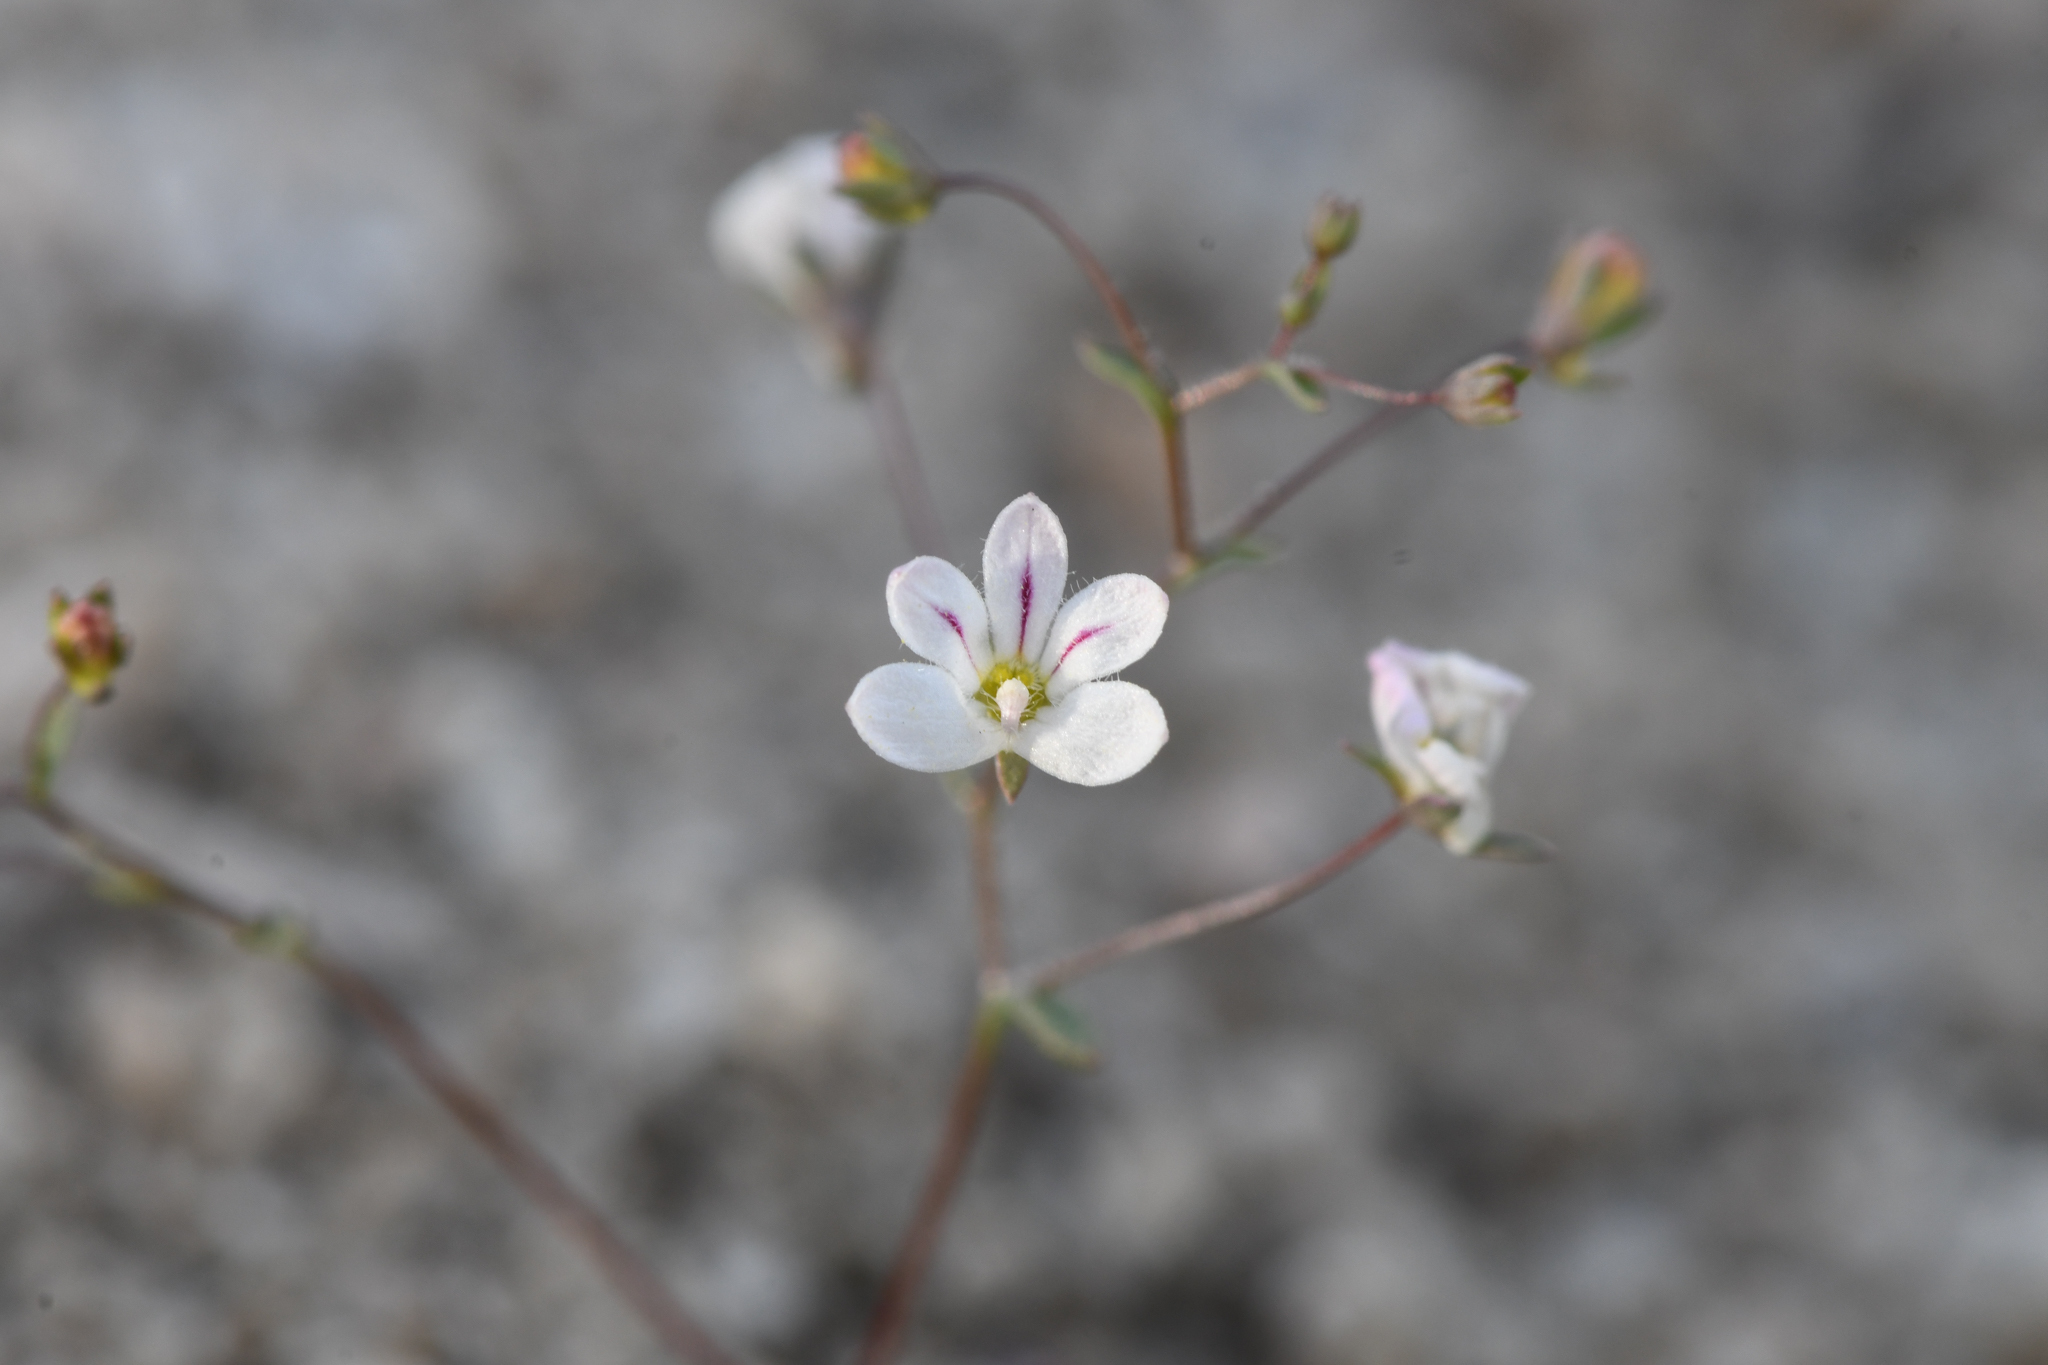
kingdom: Plantae
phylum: Tracheophyta
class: Magnoliopsida
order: Asterales
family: Campanulaceae
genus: Nemacladus
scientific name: Nemacladus calcaratus
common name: Spurred threadplant
